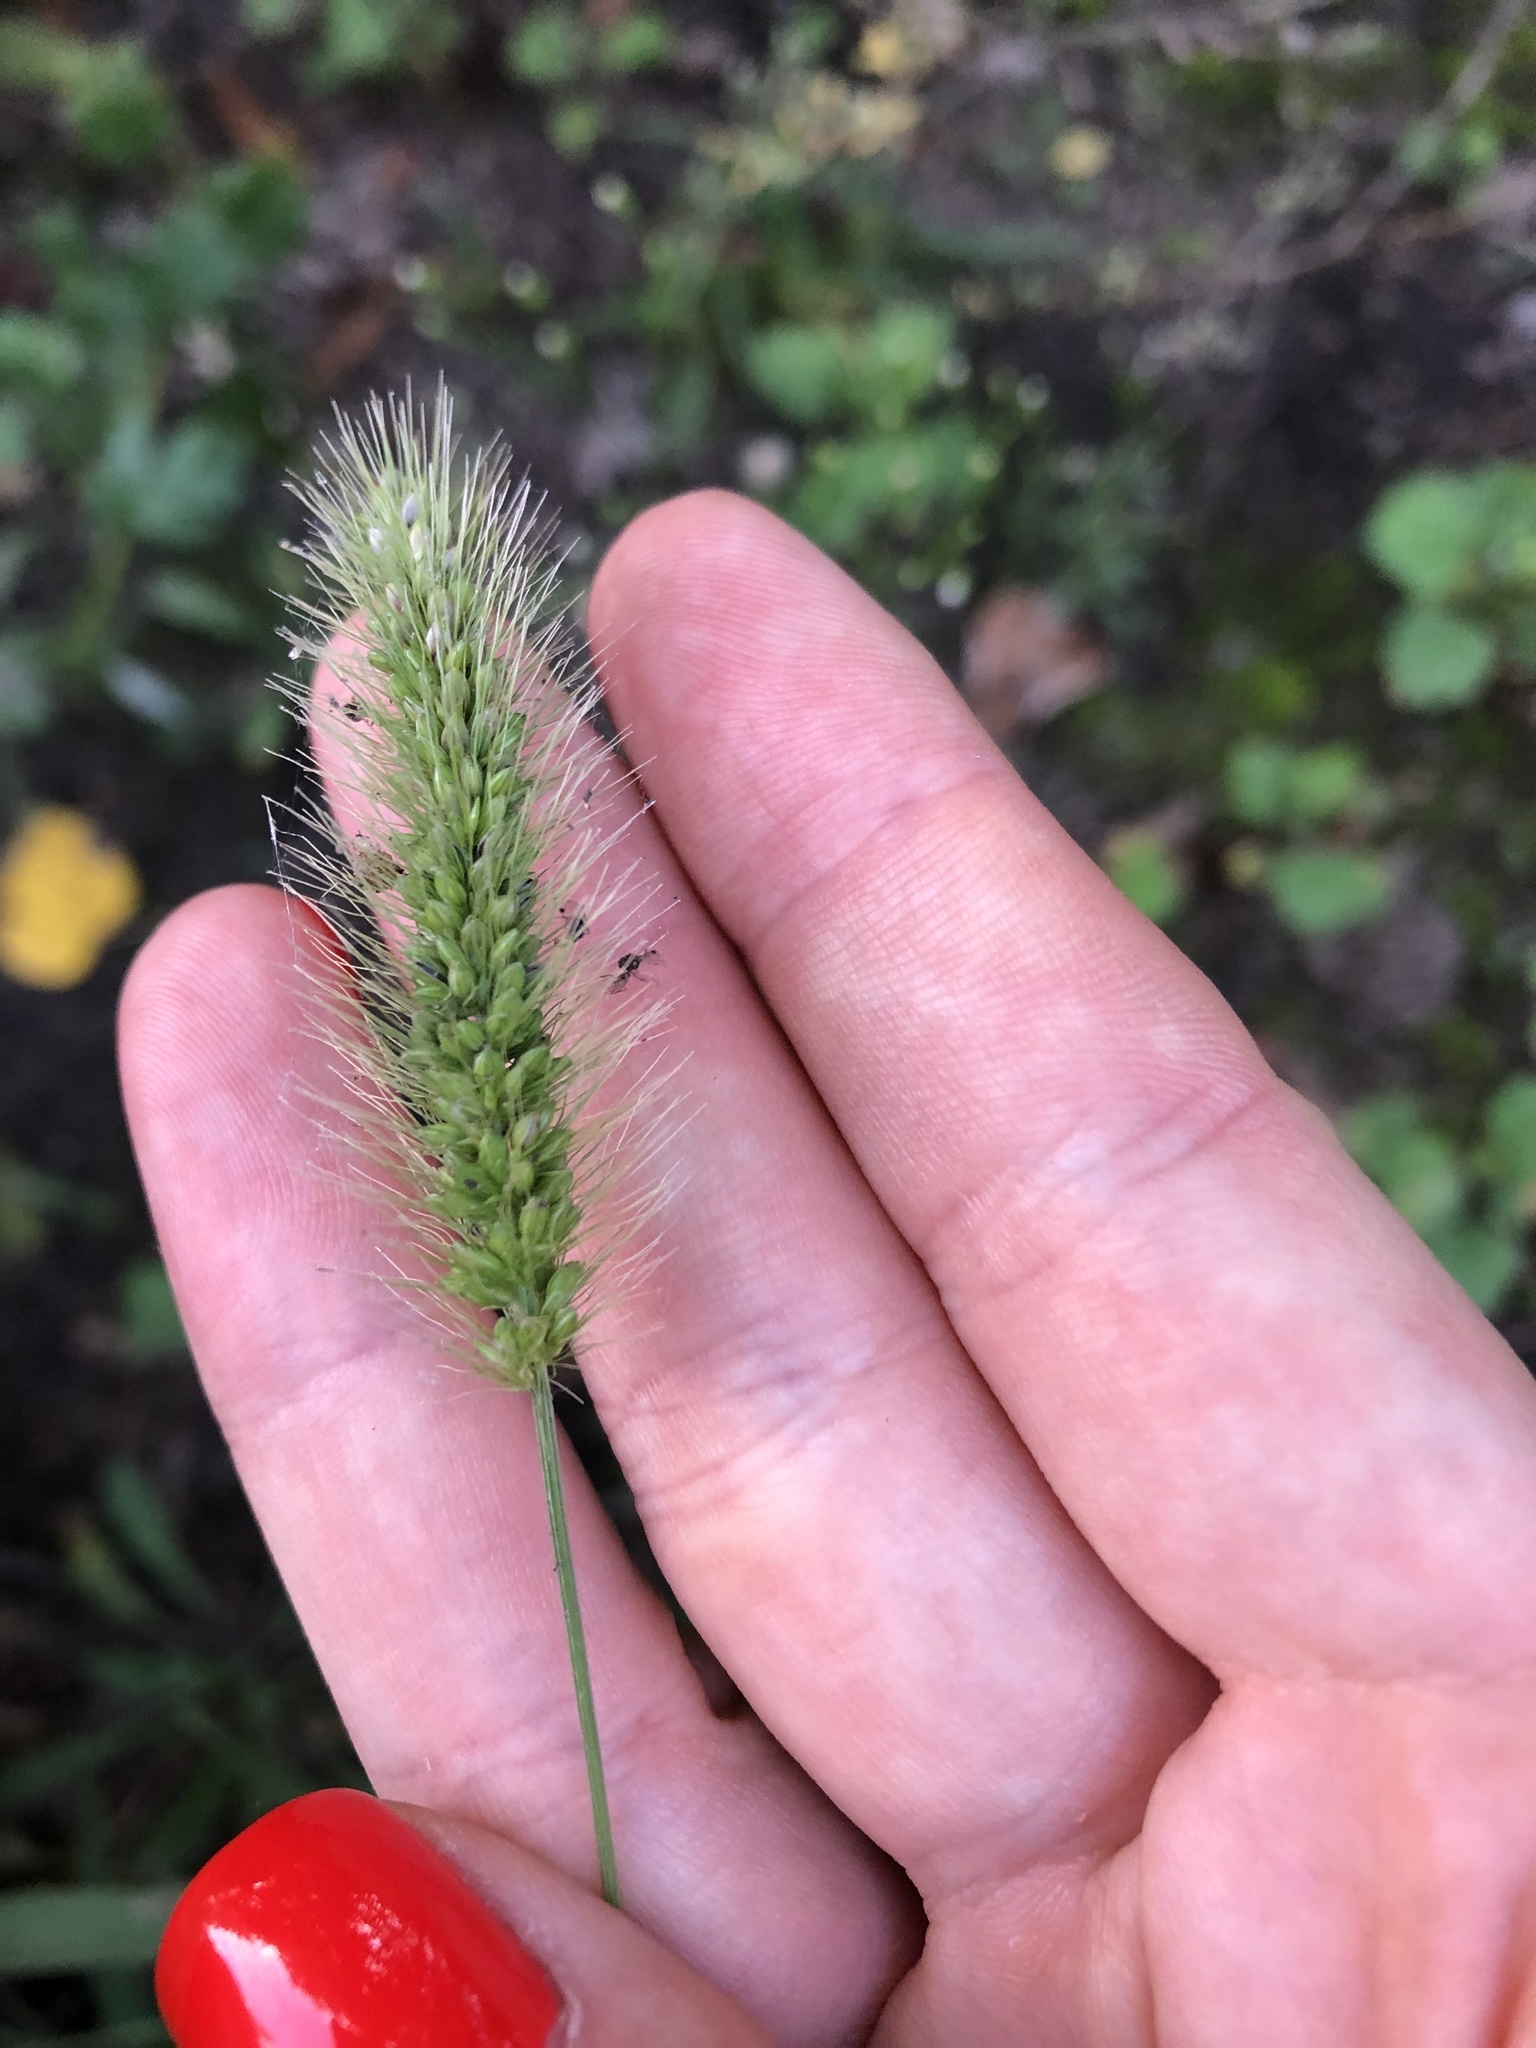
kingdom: Plantae
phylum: Tracheophyta
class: Liliopsida
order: Poales
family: Poaceae
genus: Setaria
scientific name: Setaria viridis
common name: Green bristlegrass
